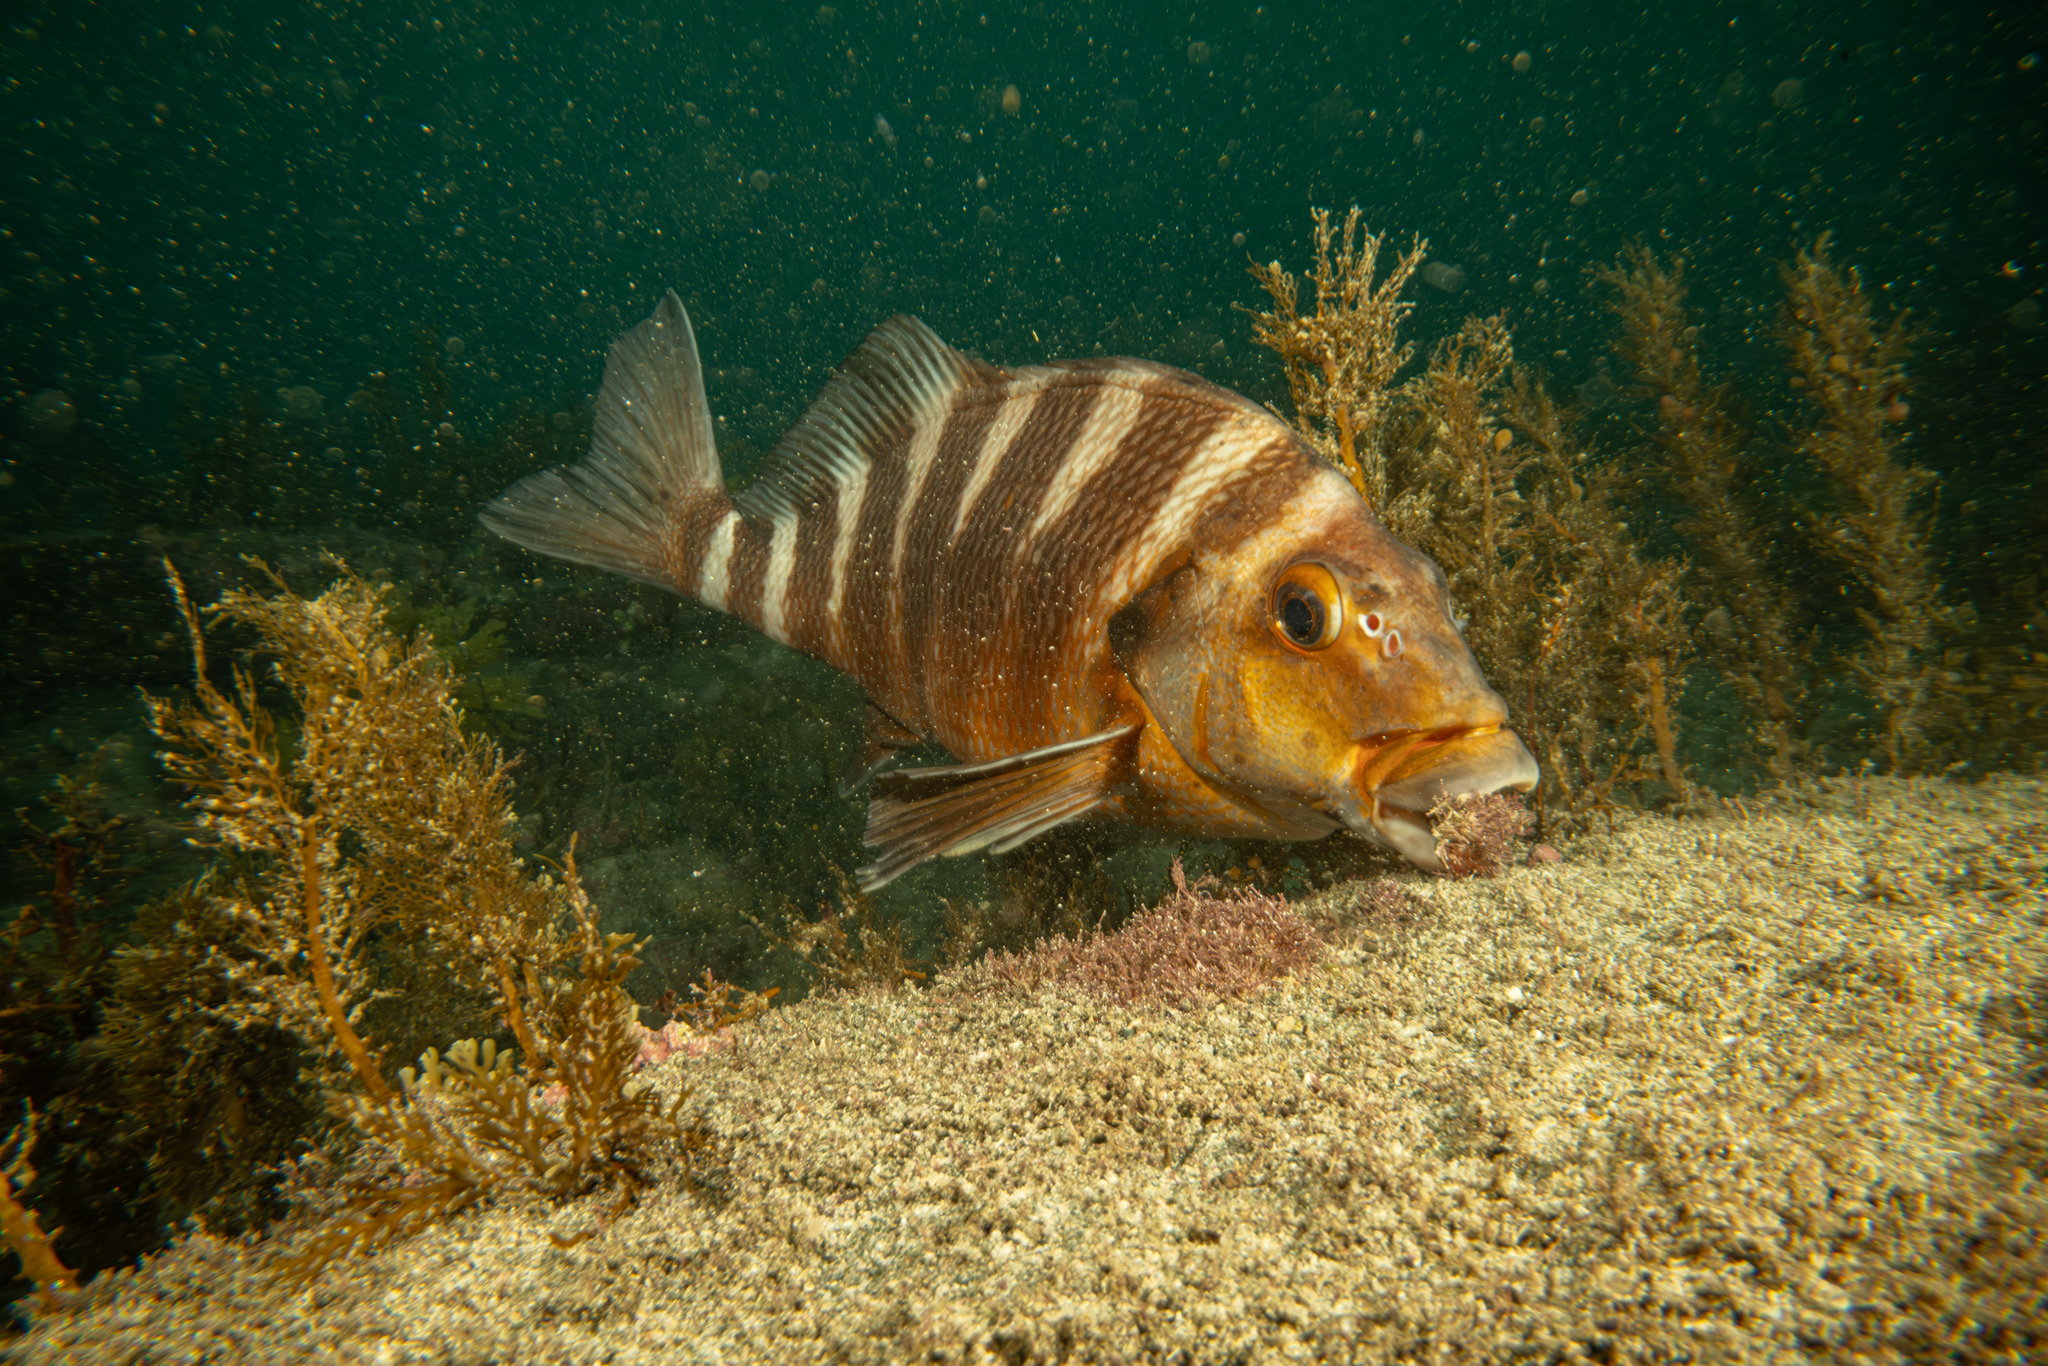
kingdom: Animalia
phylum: Chordata
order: Perciformes
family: Cheilodactylidae
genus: Cheilodactylus
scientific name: Cheilodactylus spectabilis
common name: Red moki
